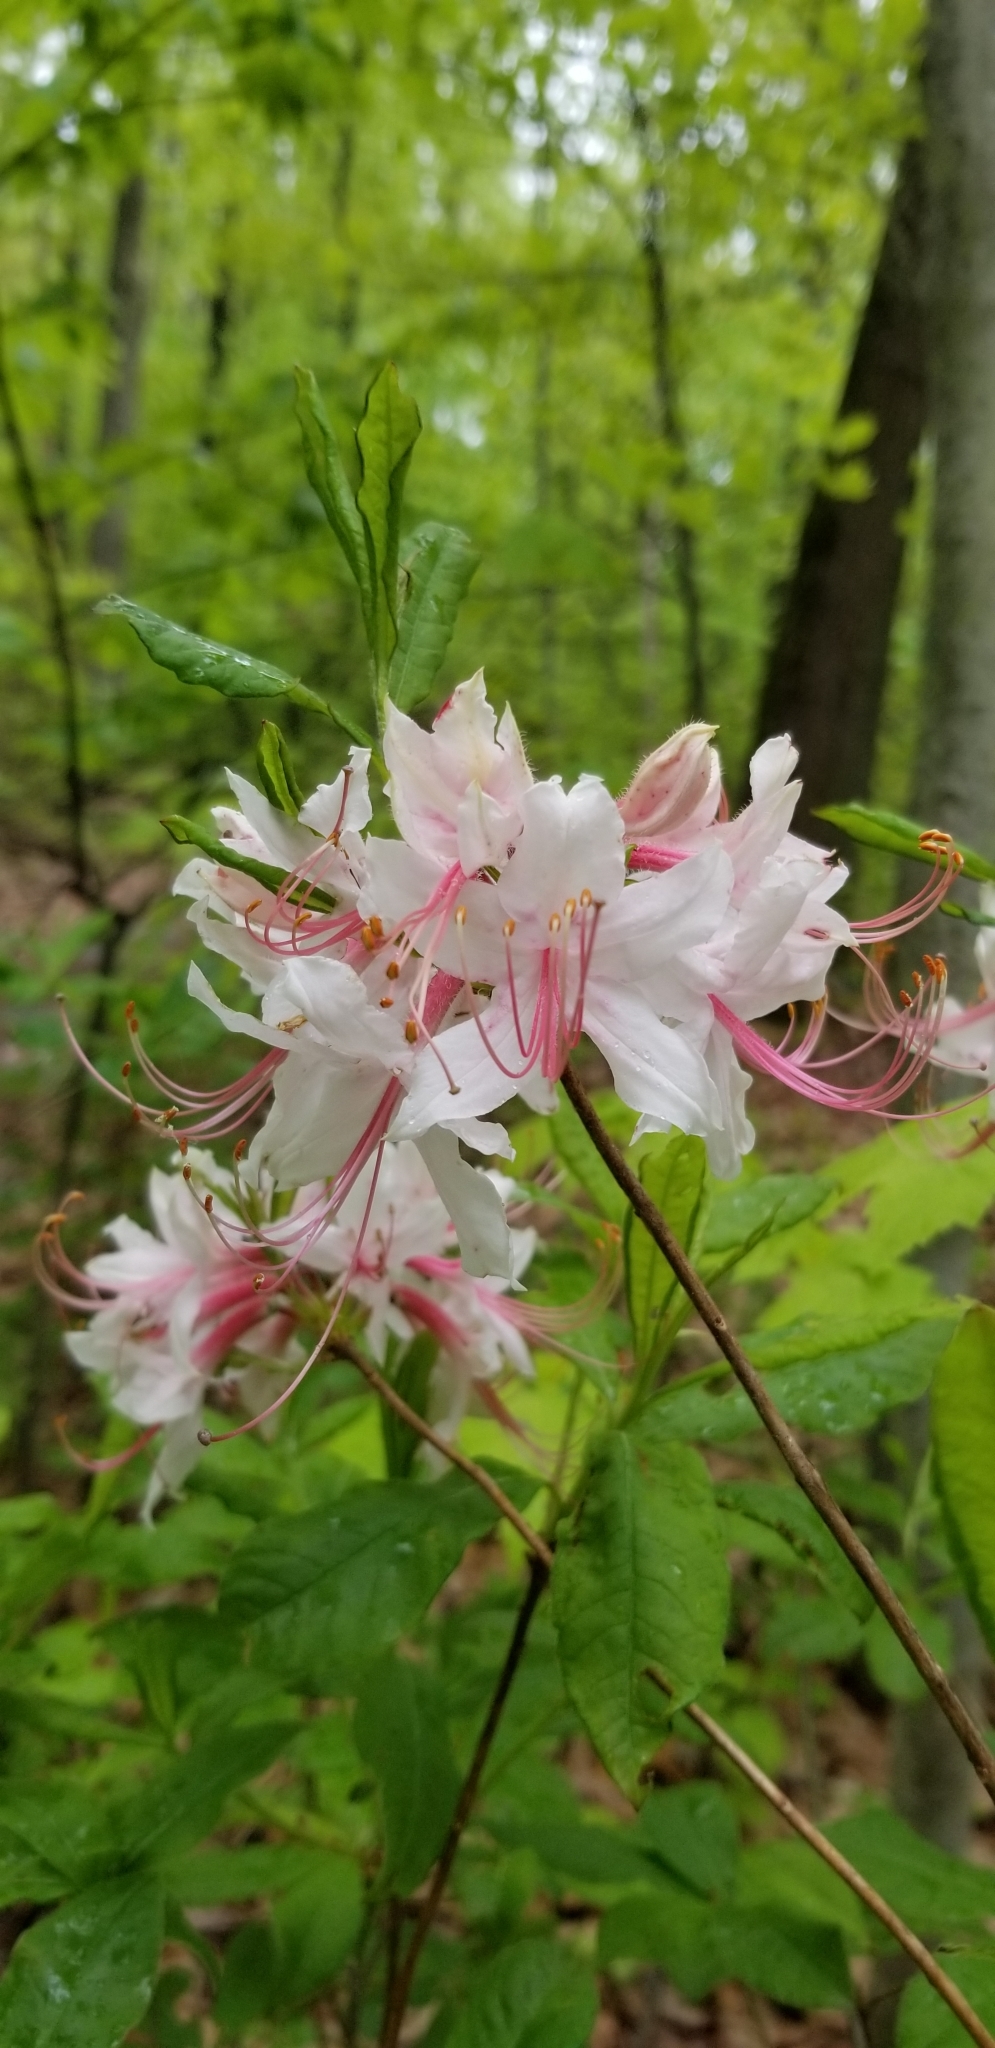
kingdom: Plantae
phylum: Tracheophyta
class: Magnoliopsida
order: Ericales
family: Ericaceae
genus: Rhododendron
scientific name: Rhododendron periclymenoides
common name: Election-pink
